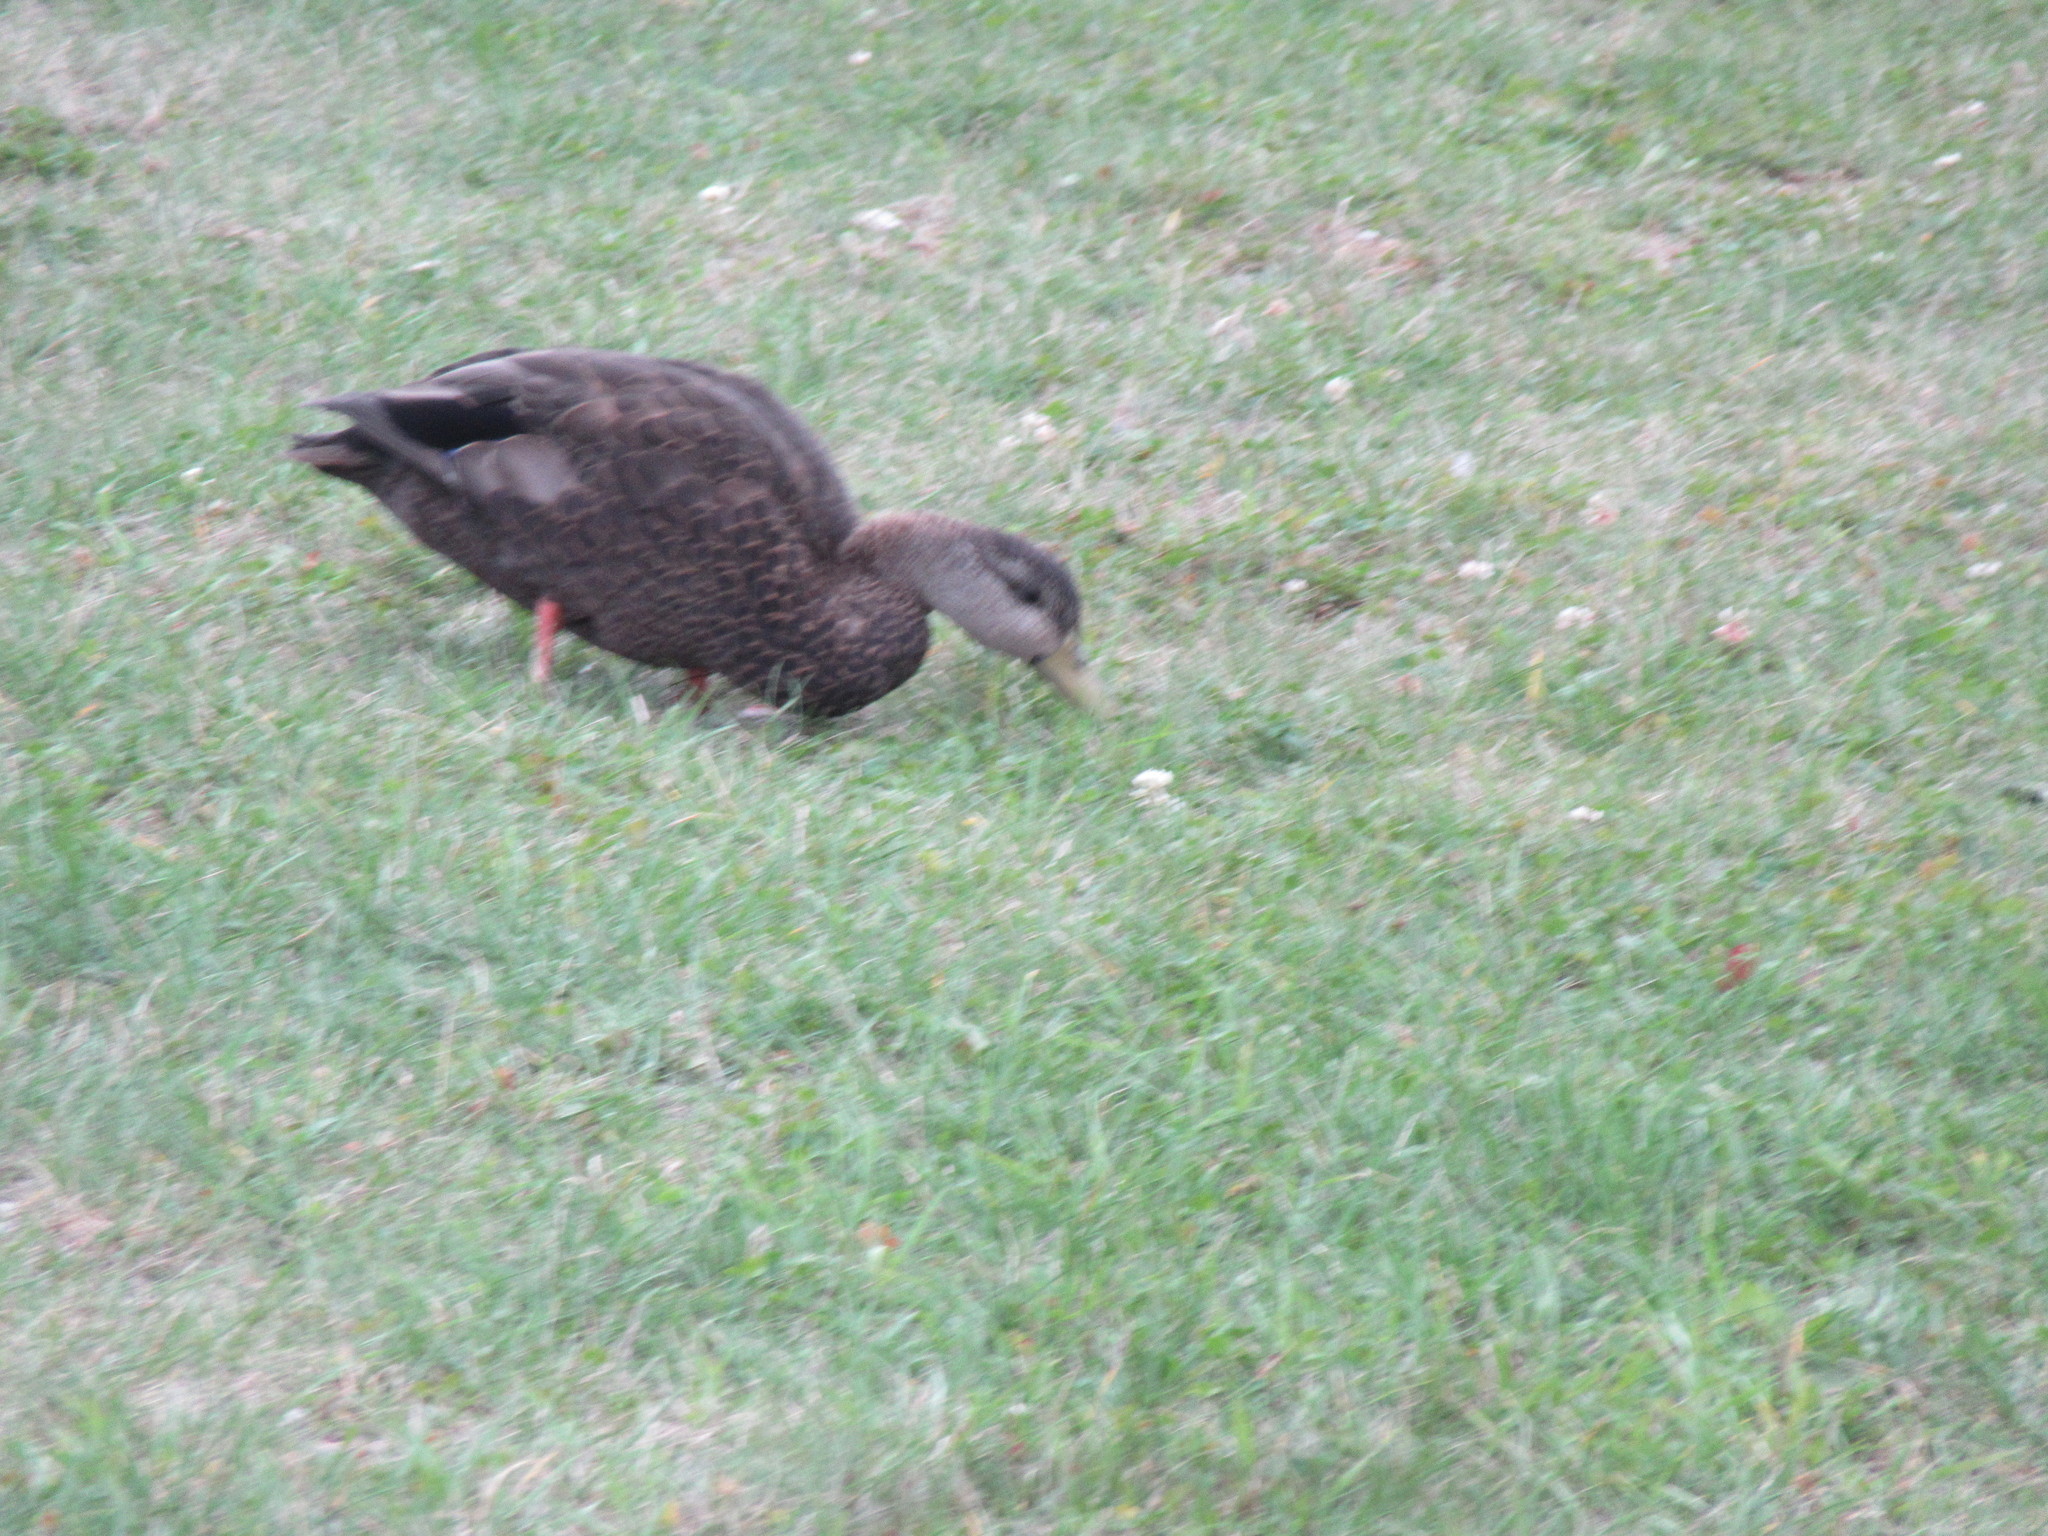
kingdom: Animalia
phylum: Chordata
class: Aves
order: Anseriformes
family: Anatidae
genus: Anas
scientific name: Anas rubripes
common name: American black duck
